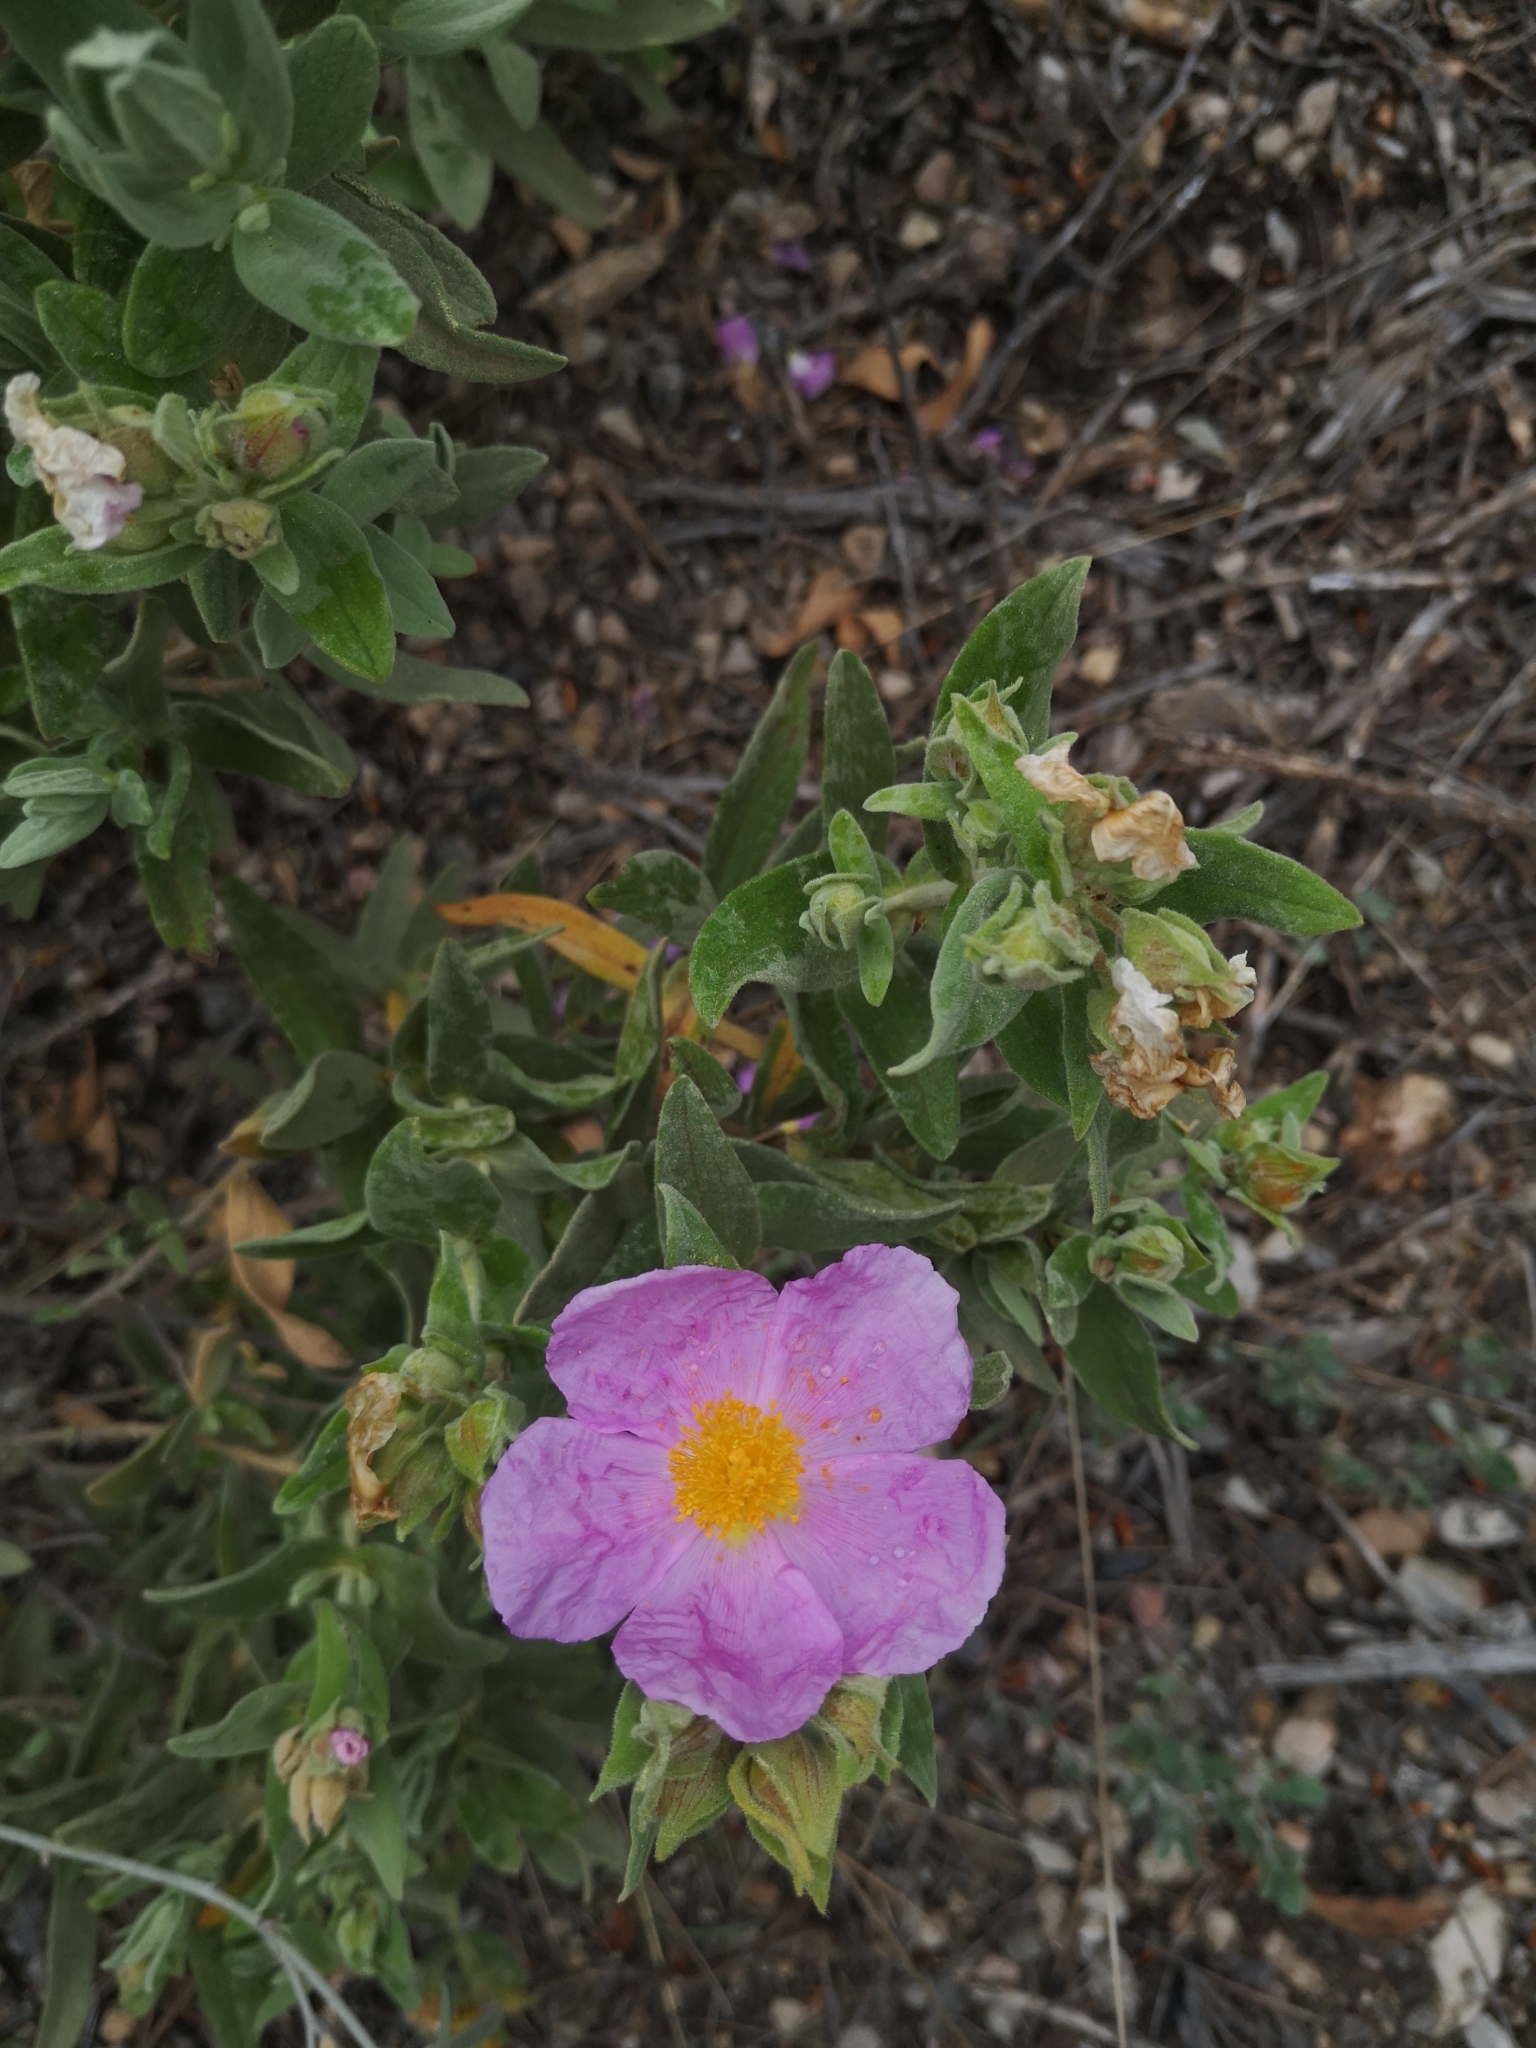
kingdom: Plantae
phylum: Tracheophyta
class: Magnoliopsida
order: Malvales
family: Cistaceae
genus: Cistus
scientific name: Cistus albidus
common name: White-leaf rock-rose
